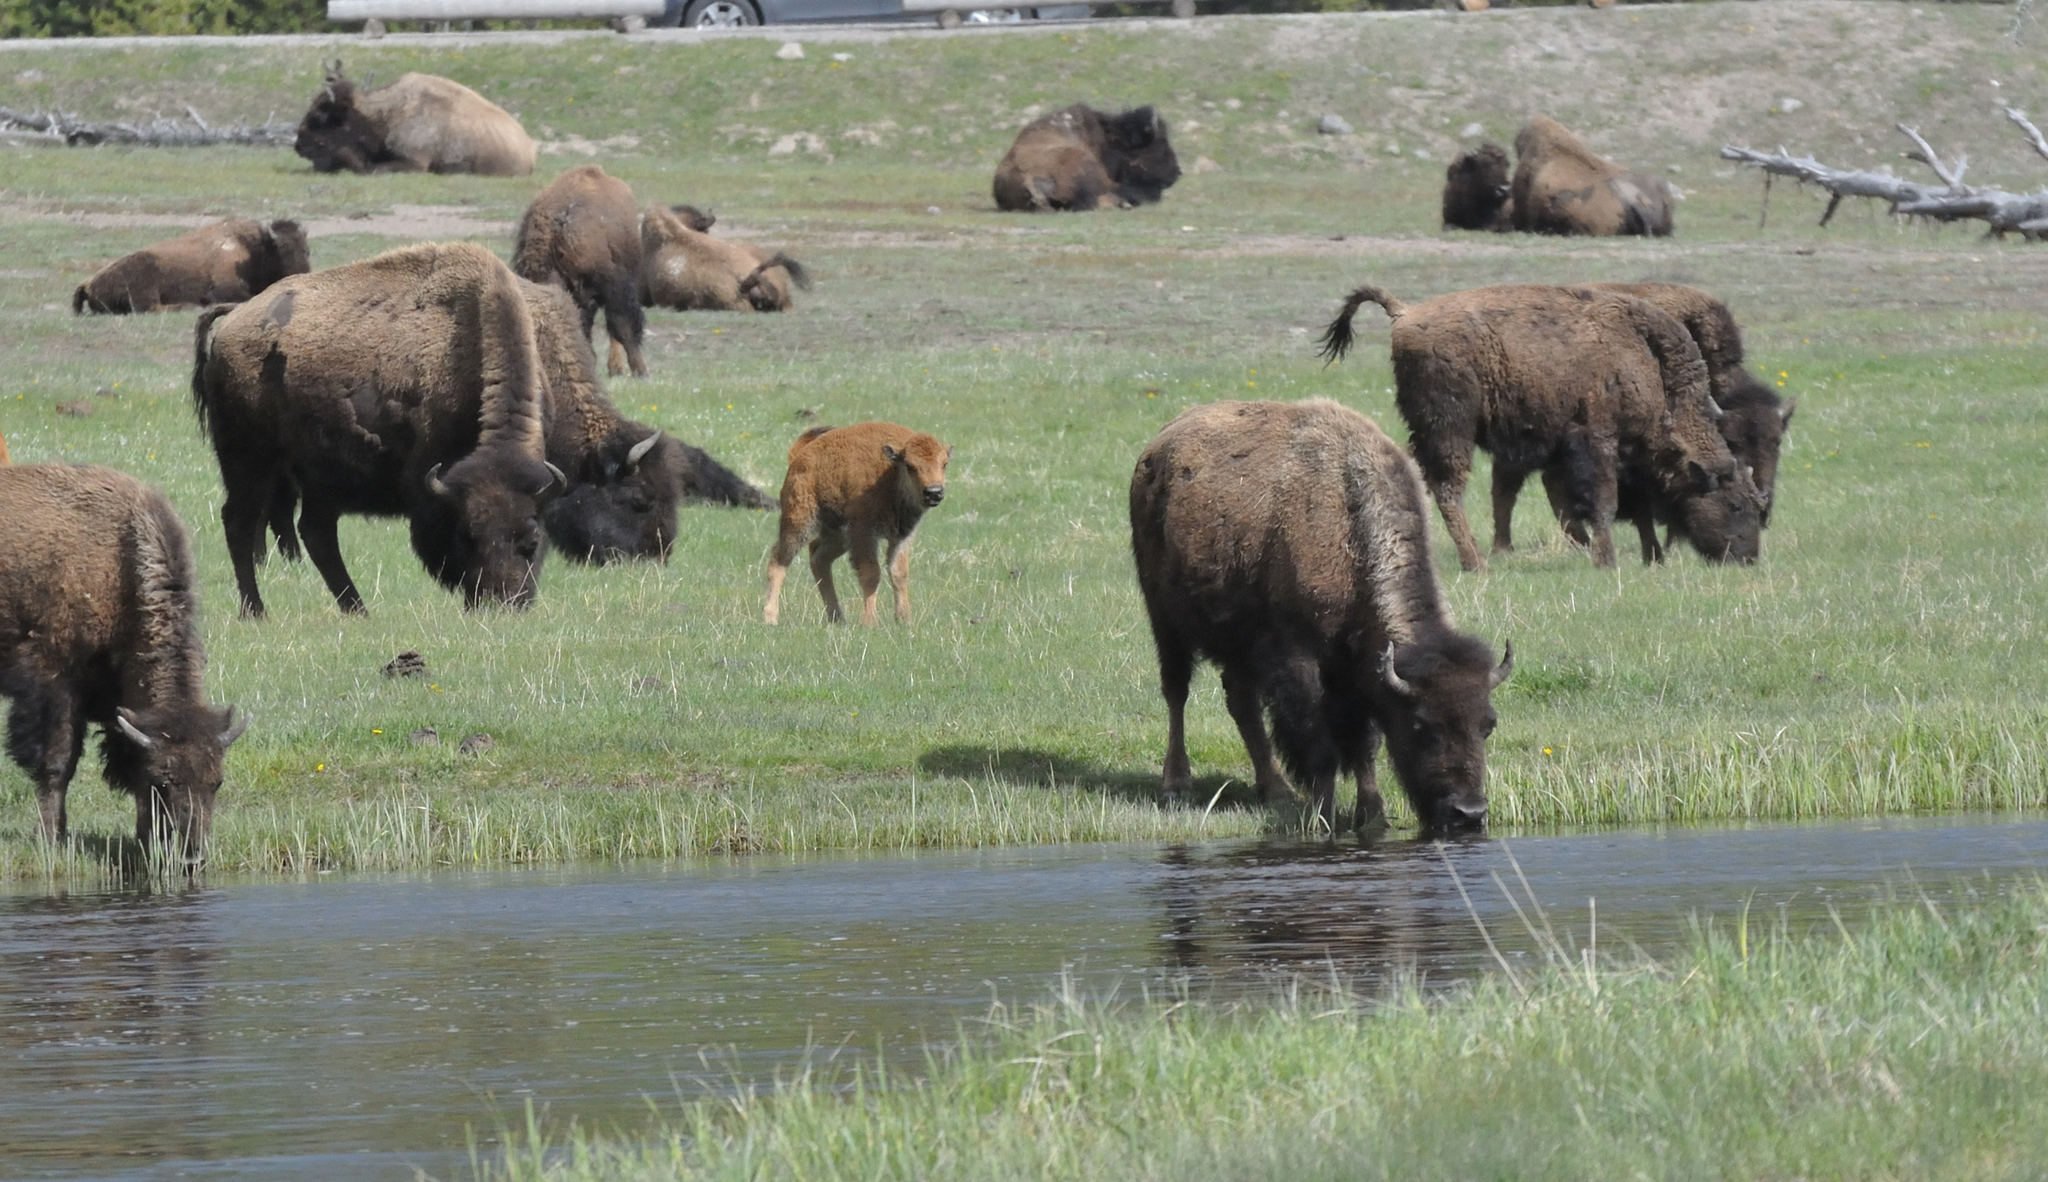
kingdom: Animalia
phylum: Chordata
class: Mammalia
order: Artiodactyla
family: Bovidae
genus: Bison
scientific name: Bison bison
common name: American bison
